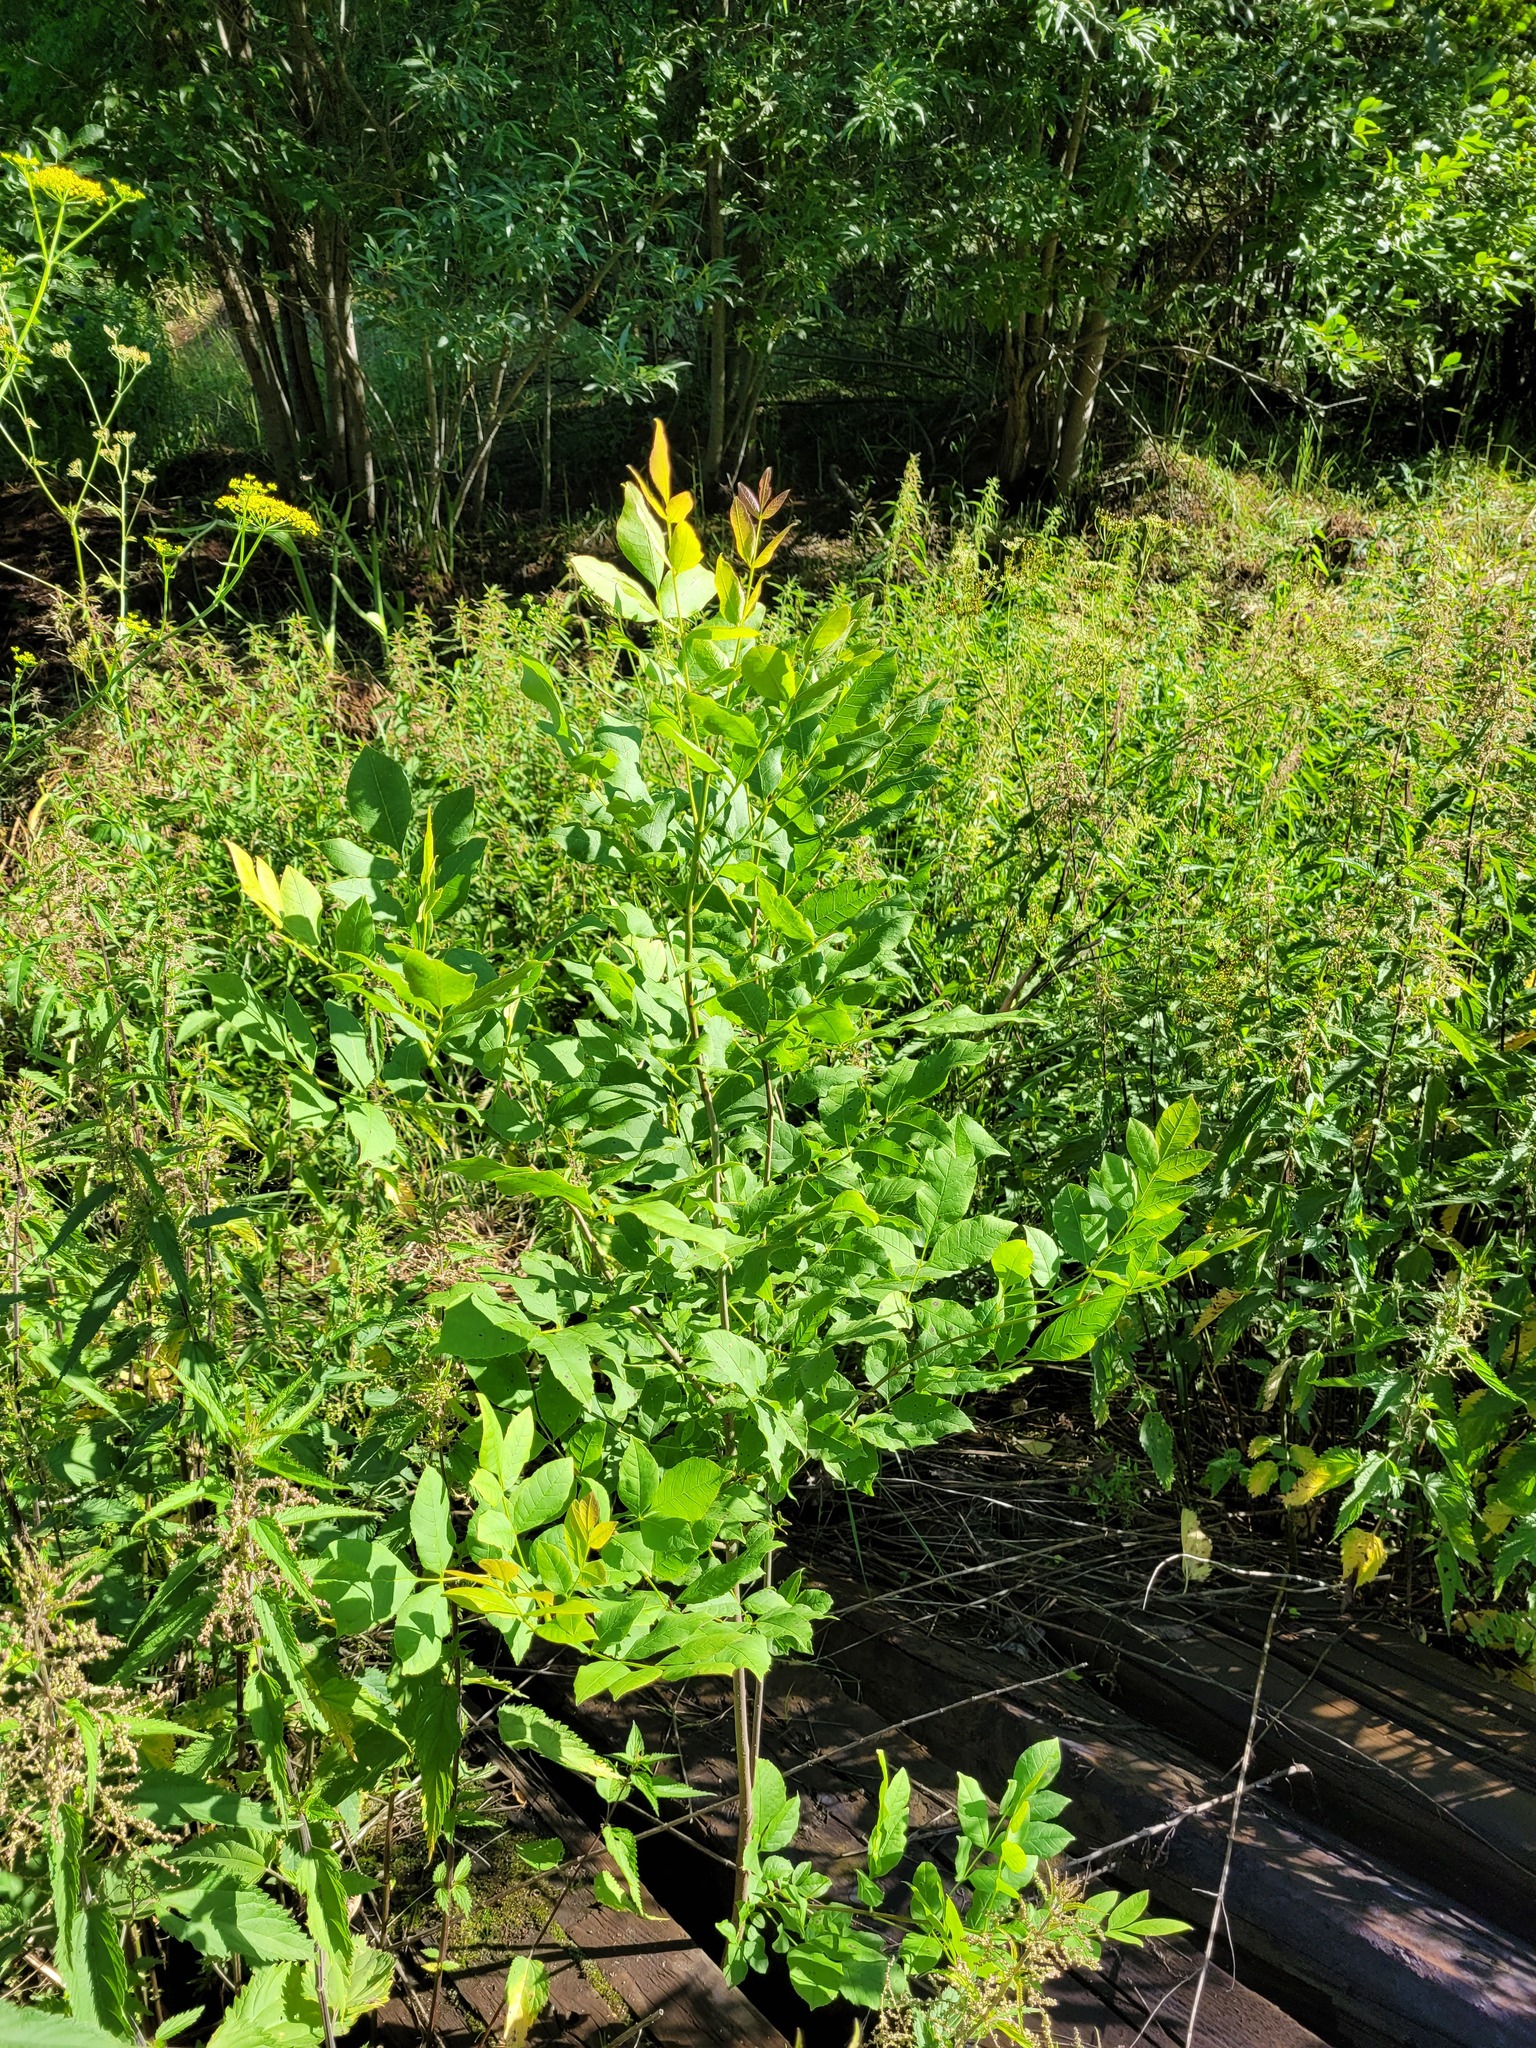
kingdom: Plantae
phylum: Tracheophyta
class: Magnoliopsida
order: Lamiales
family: Oleaceae
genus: Fraxinus
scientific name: Fraxinus pennsylvanica
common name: Green ash
